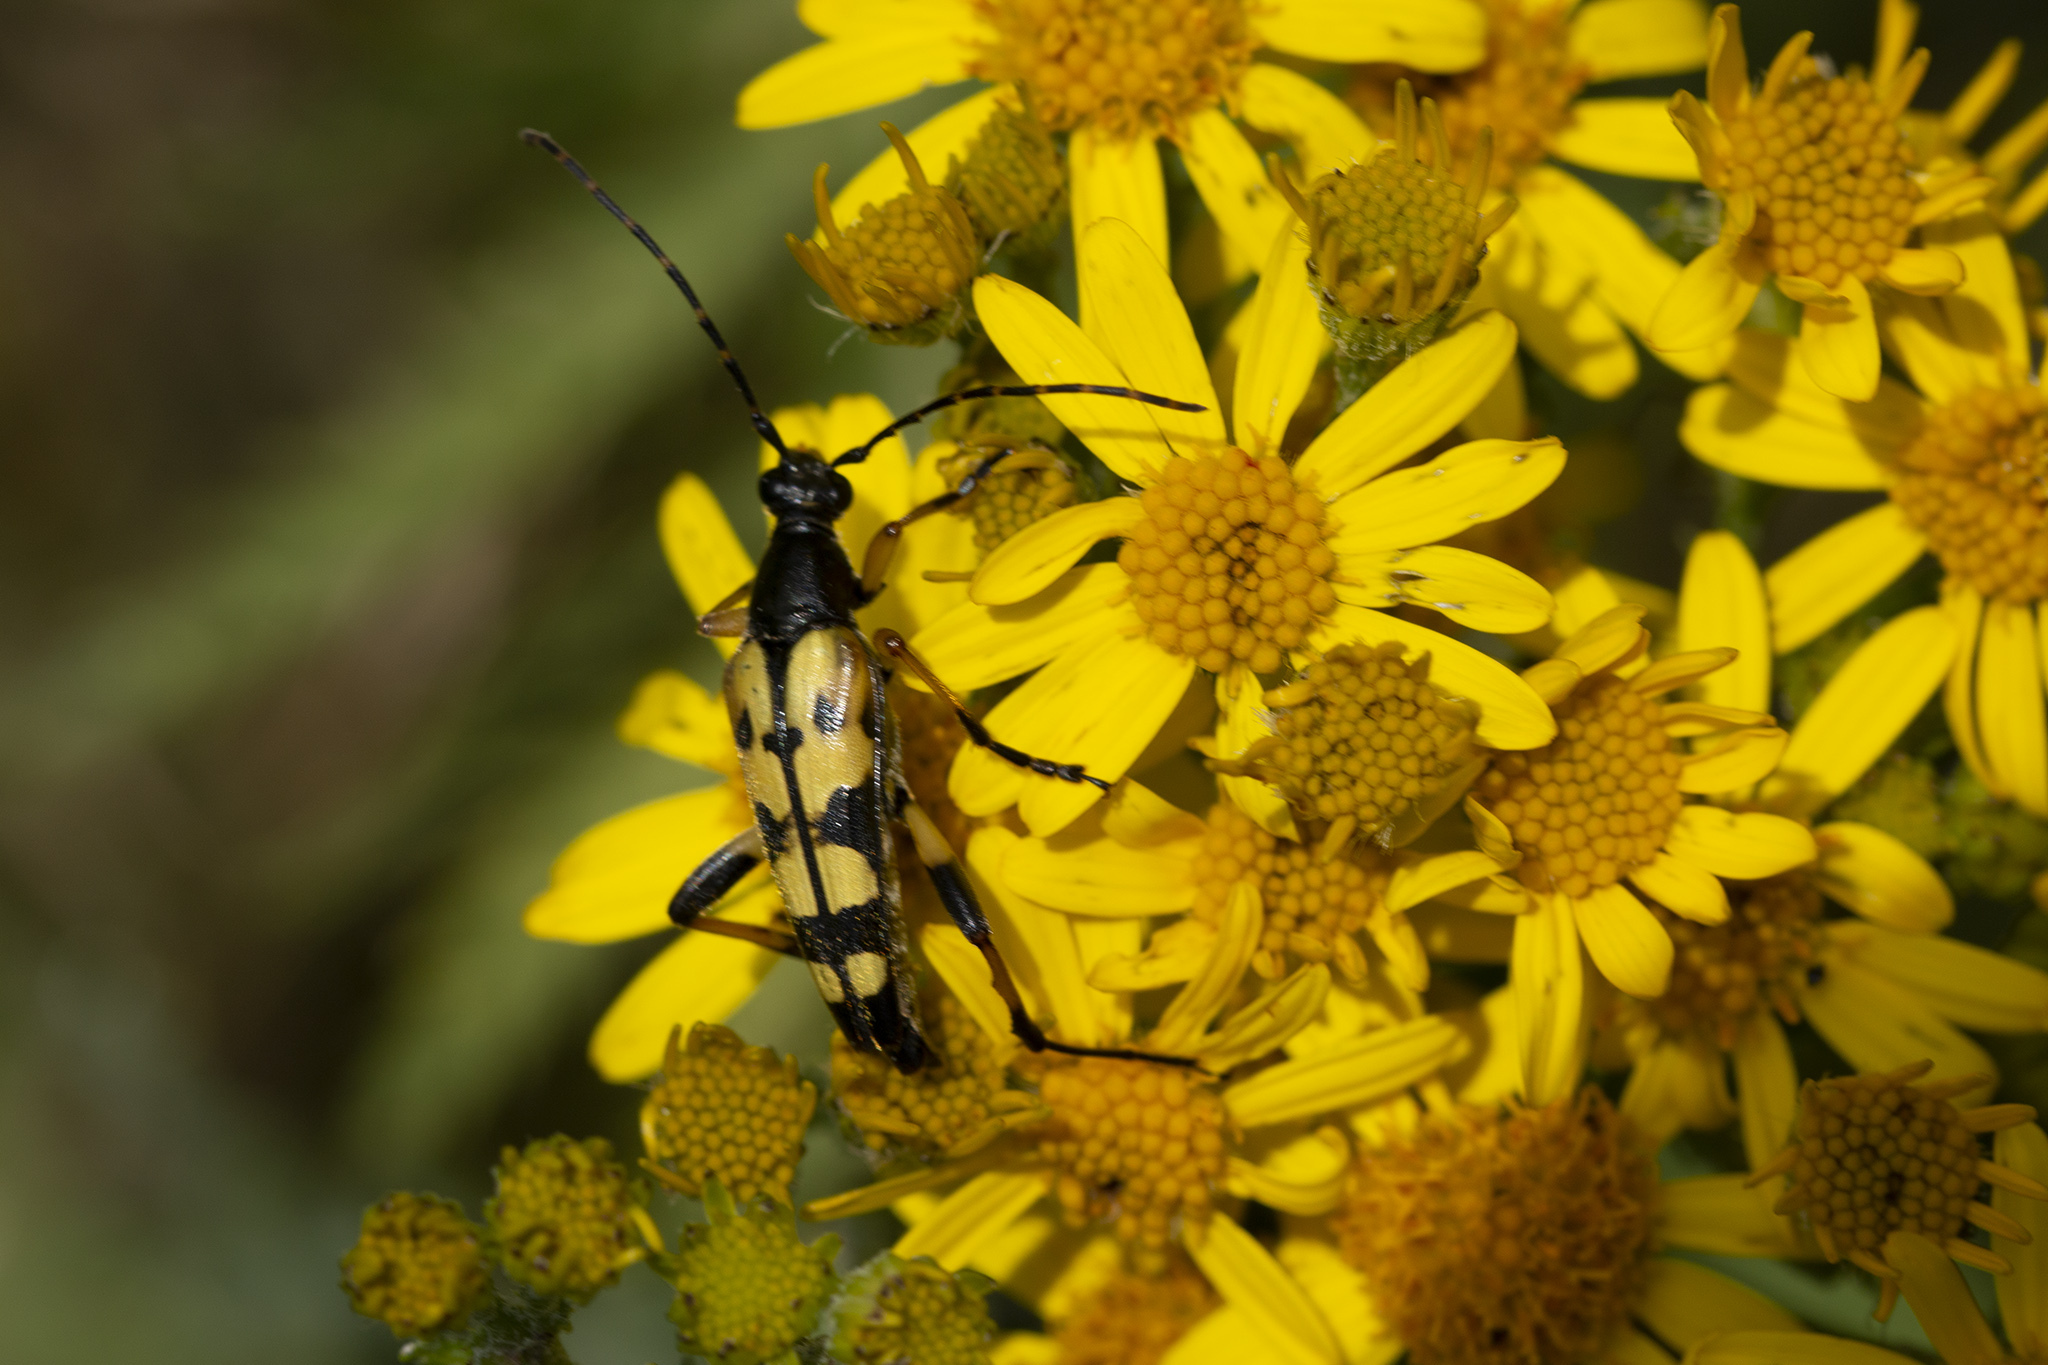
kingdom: Animalia
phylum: Arthropoda
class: Insecta
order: Coleoptera
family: Cerambycidae
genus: Rutpela
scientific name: Rutpela maculata
